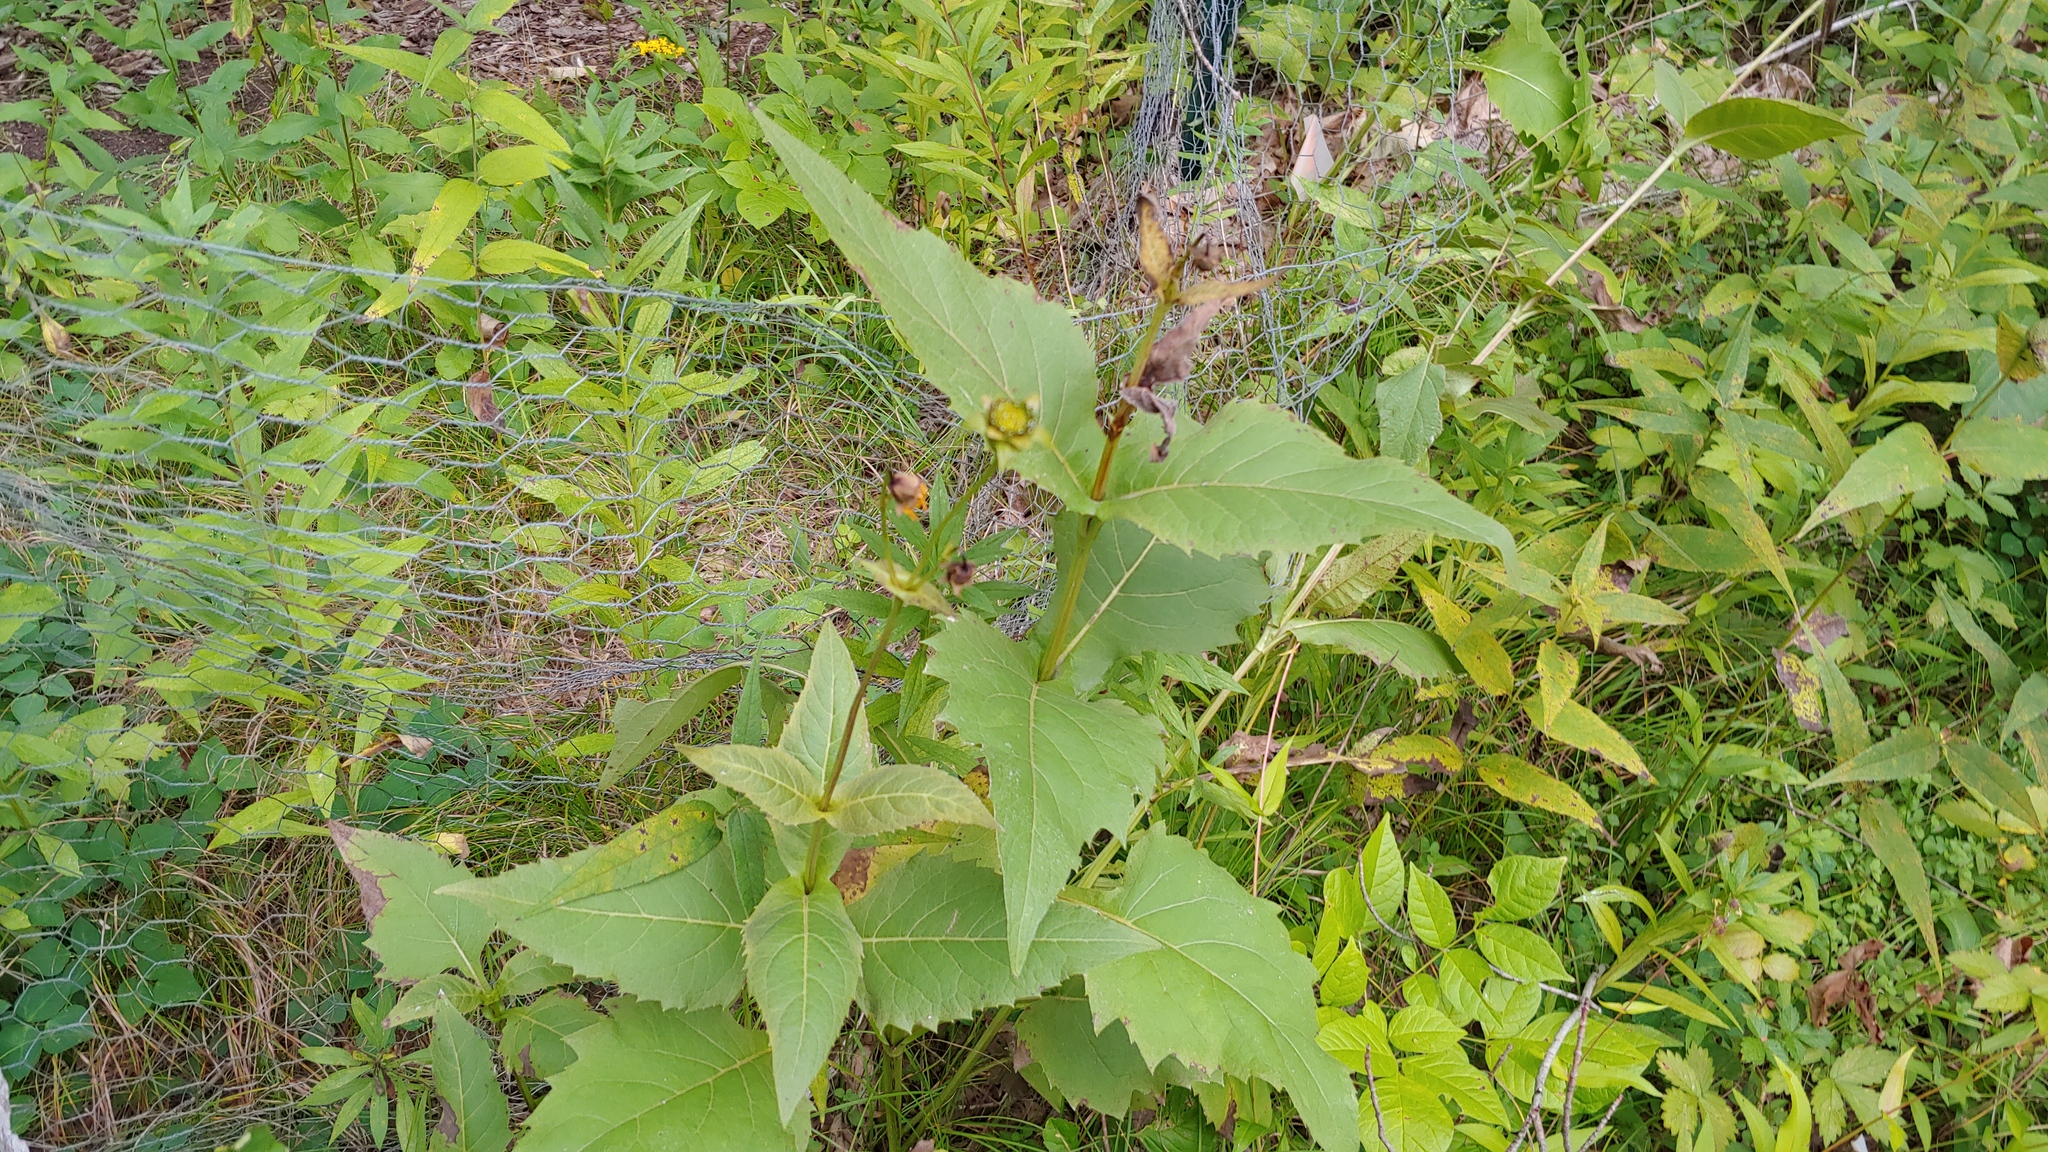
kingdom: Plantae
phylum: Tracheophyta
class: Magnoliopsida
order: Asterales
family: Asteraceae
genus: Silphium
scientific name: Silphium perfoliatum
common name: Cup-plant
